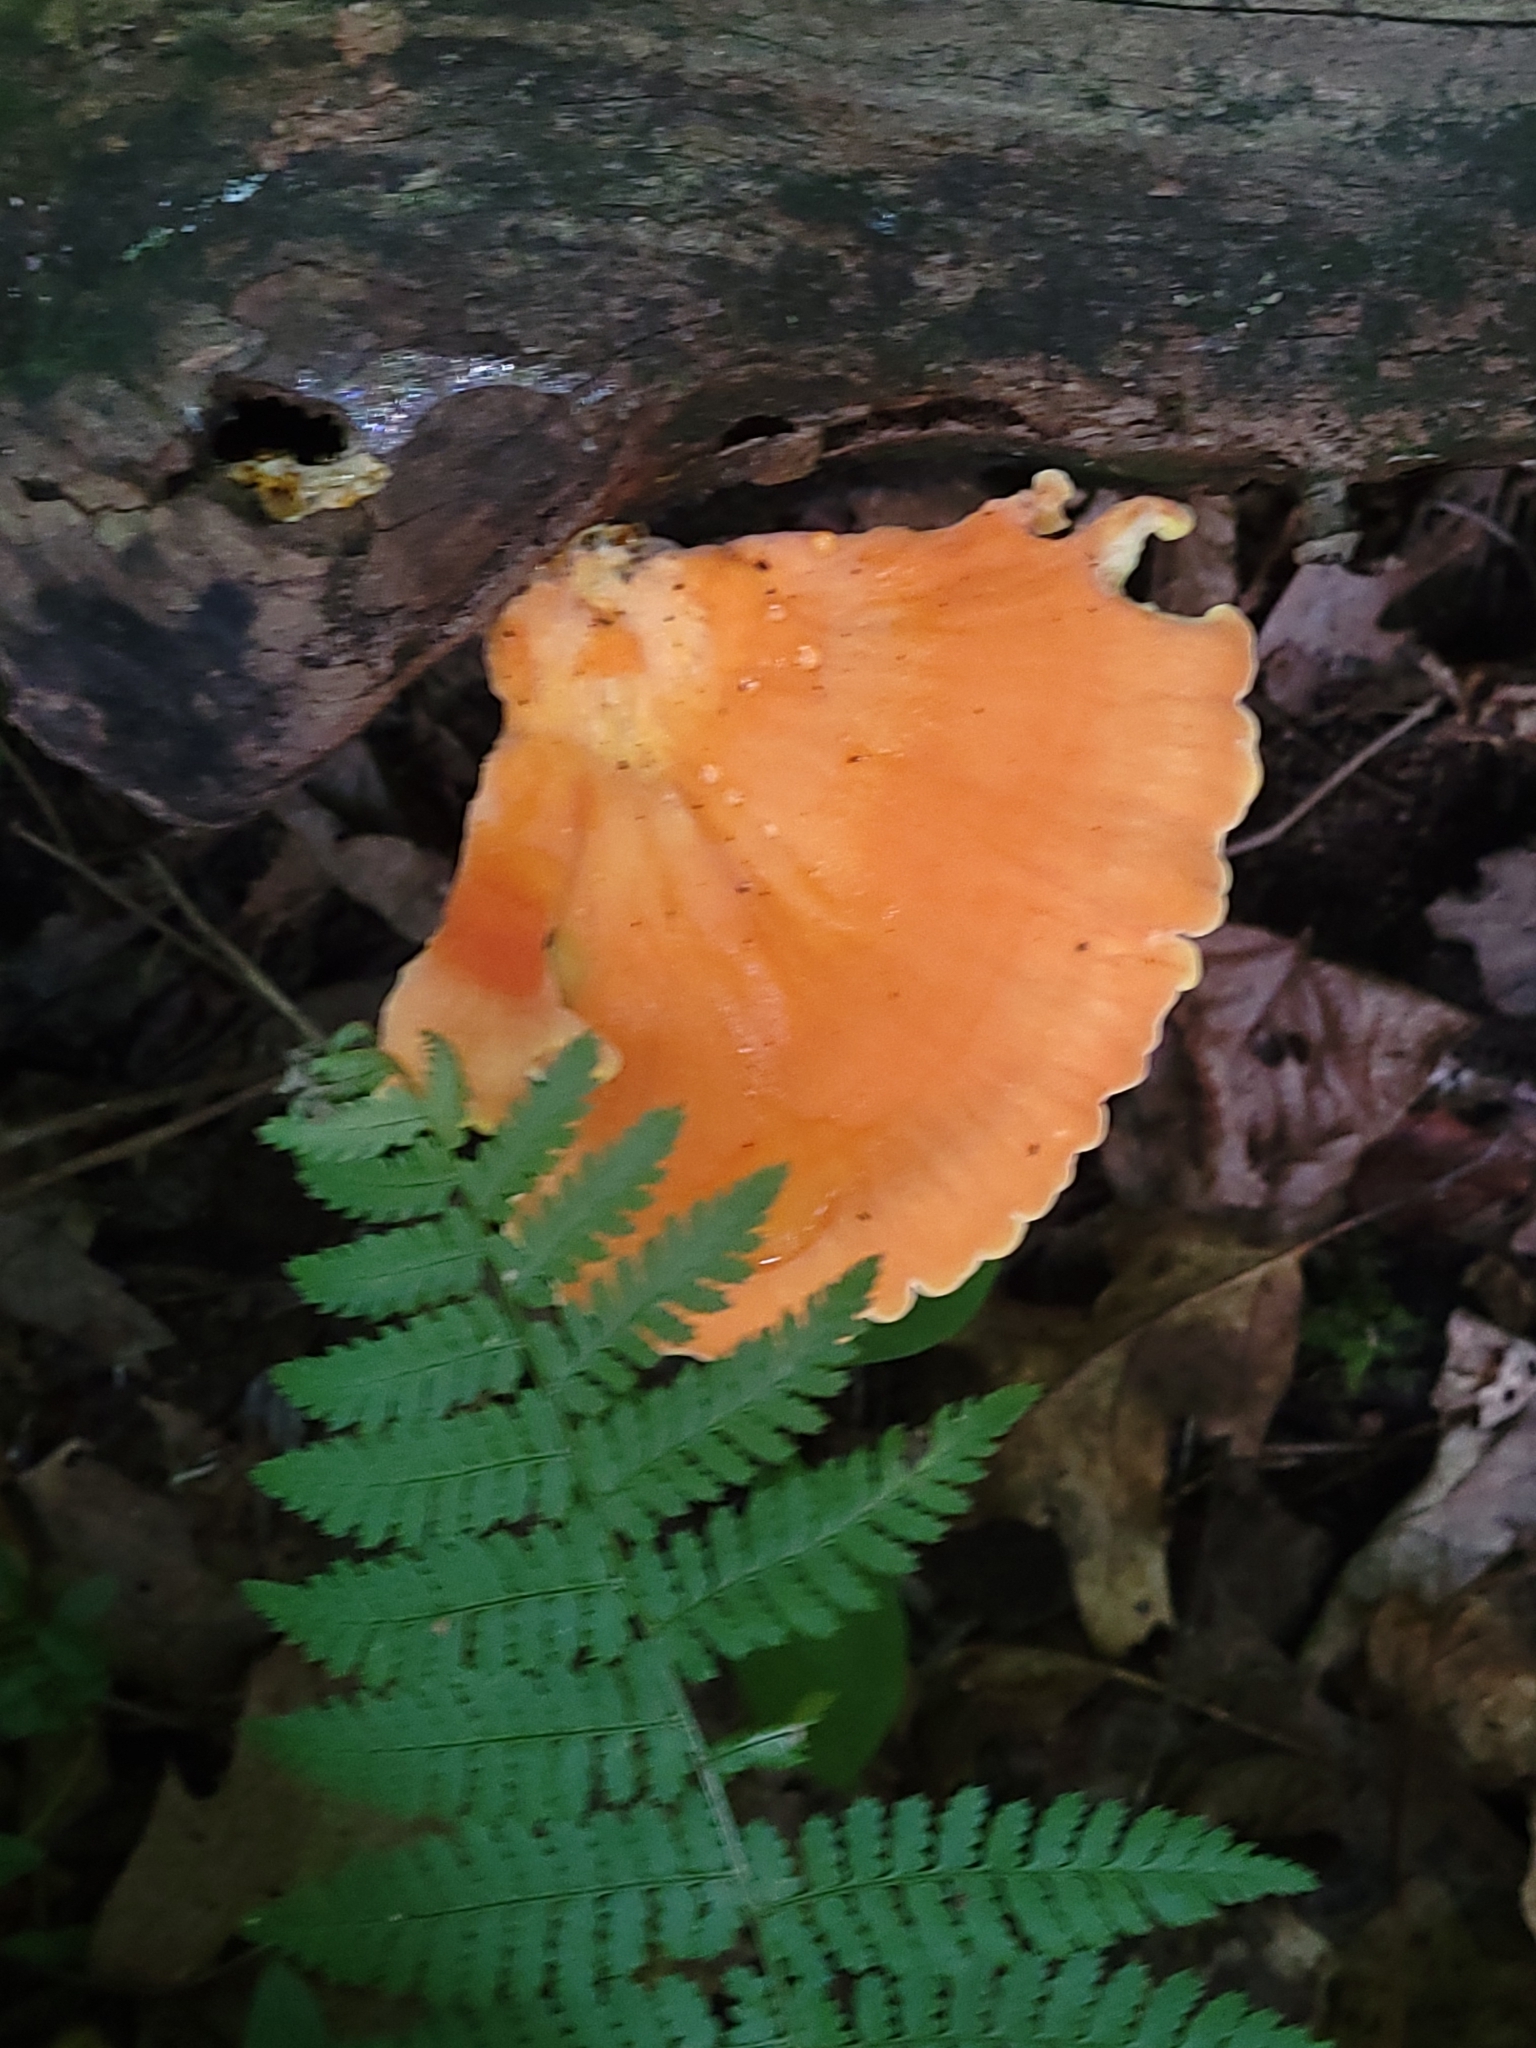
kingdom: Fungi
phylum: Basidiomycota
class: Agaricomycetes
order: Polyporales
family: Laetiporaceae
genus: Laetiporus
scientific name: Laetiporus sulphureus
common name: Chicken of the woods
